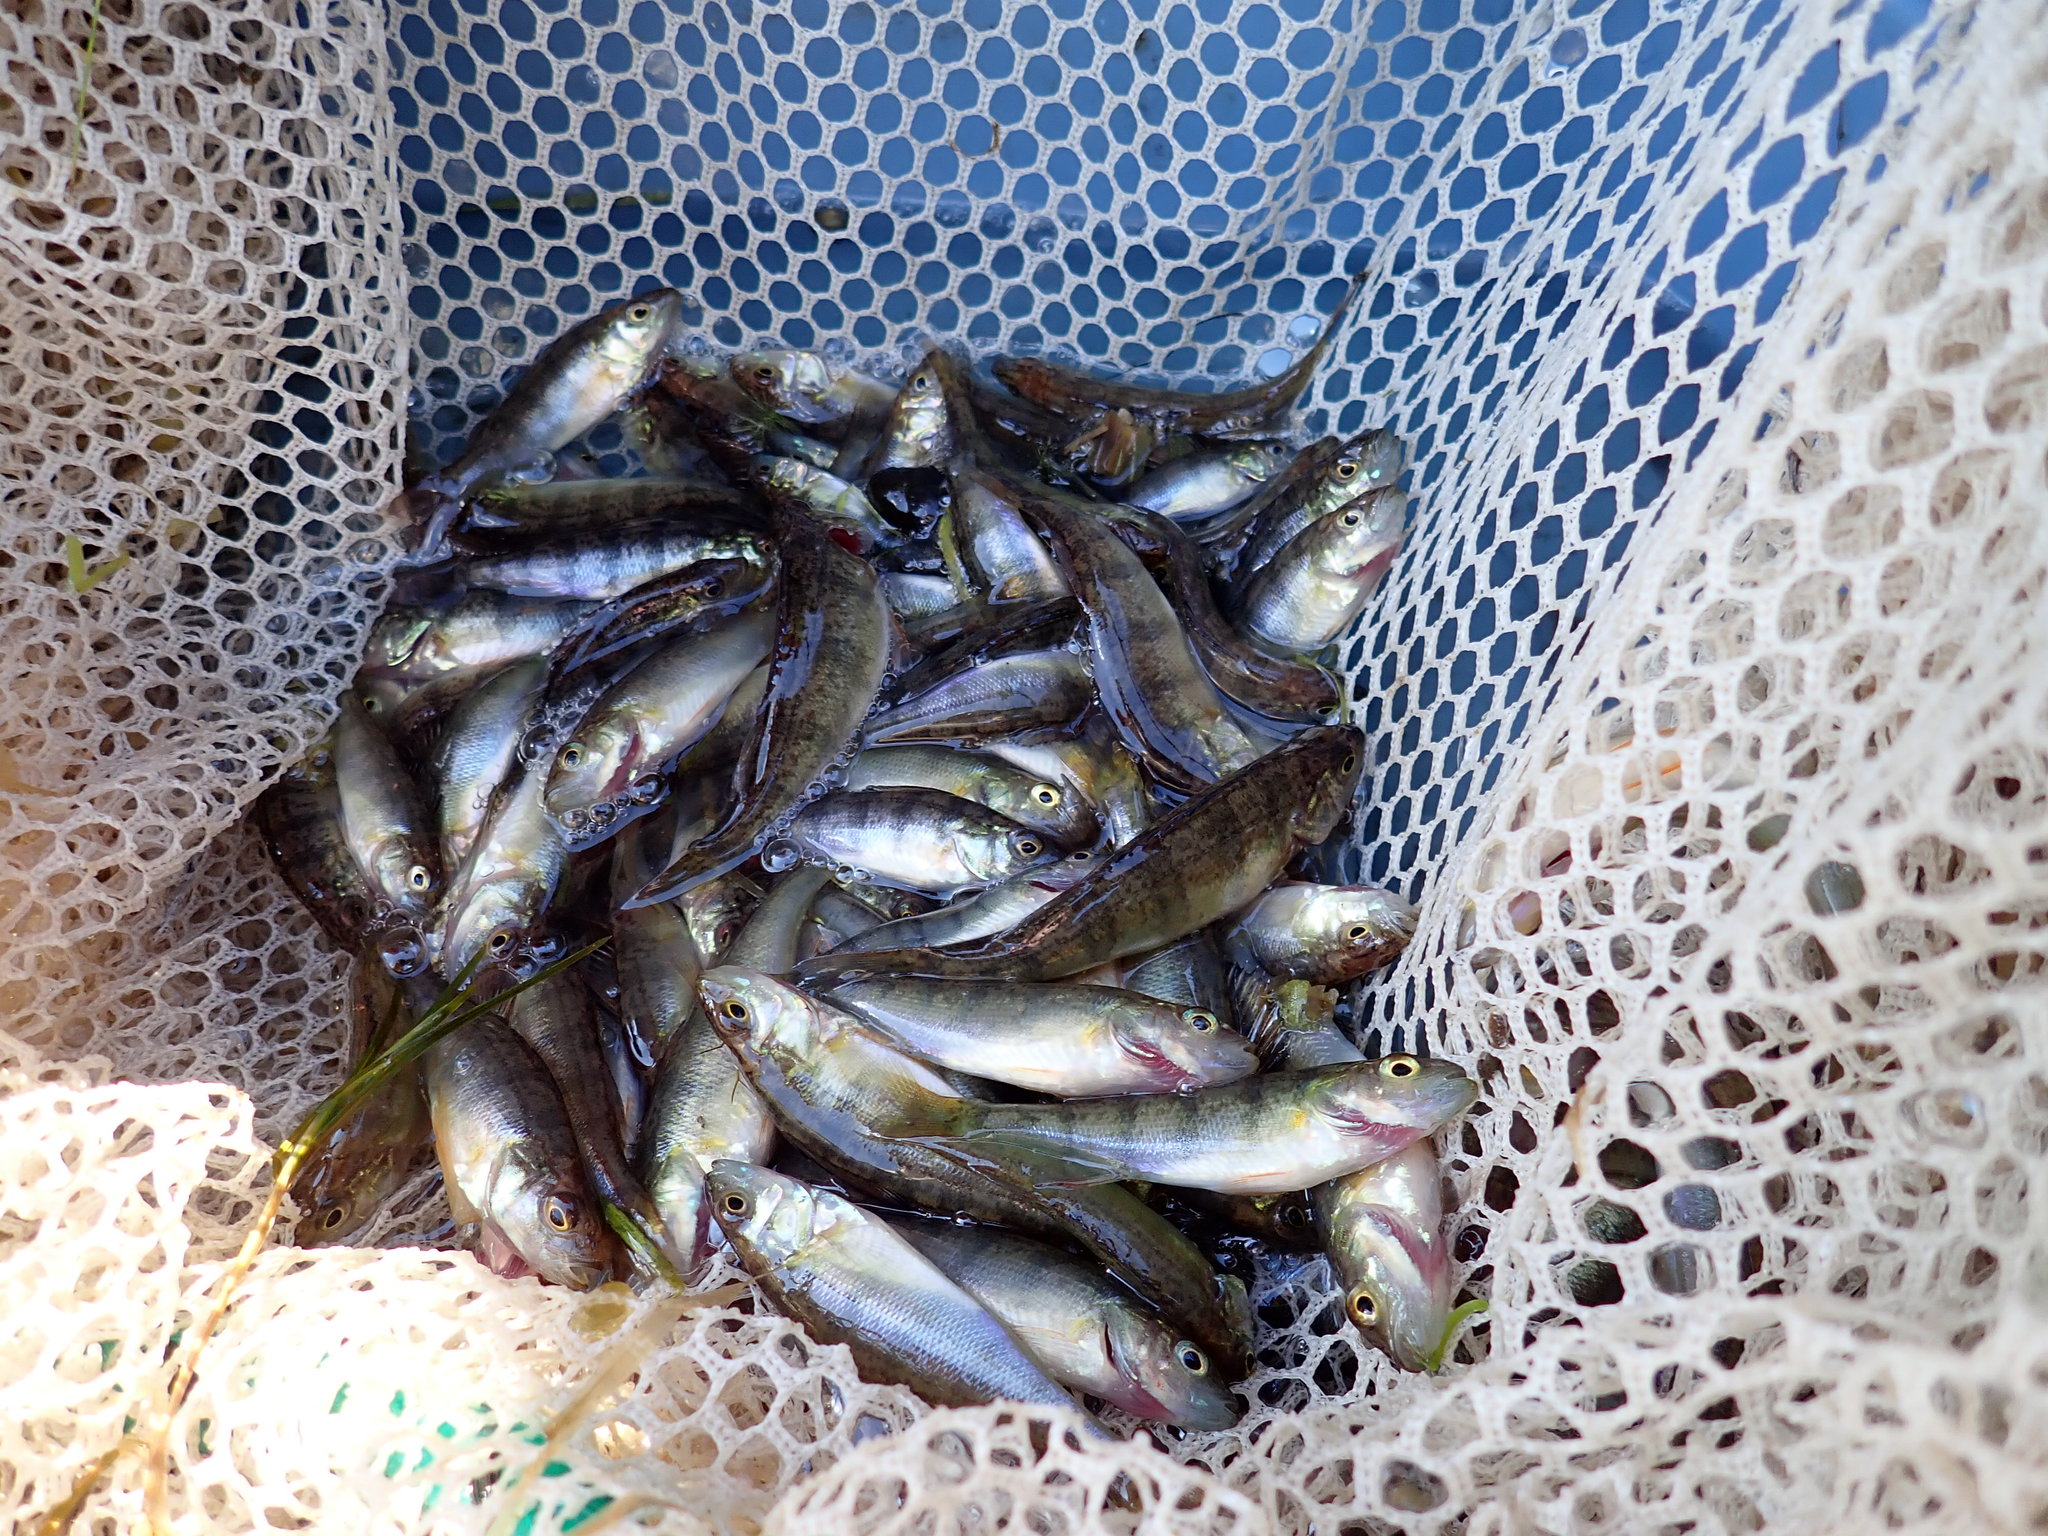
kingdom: Animalia
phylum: Chordata
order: Perciformes
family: Percidae
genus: Perca
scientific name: Perca flavescens
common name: Yellow perch
